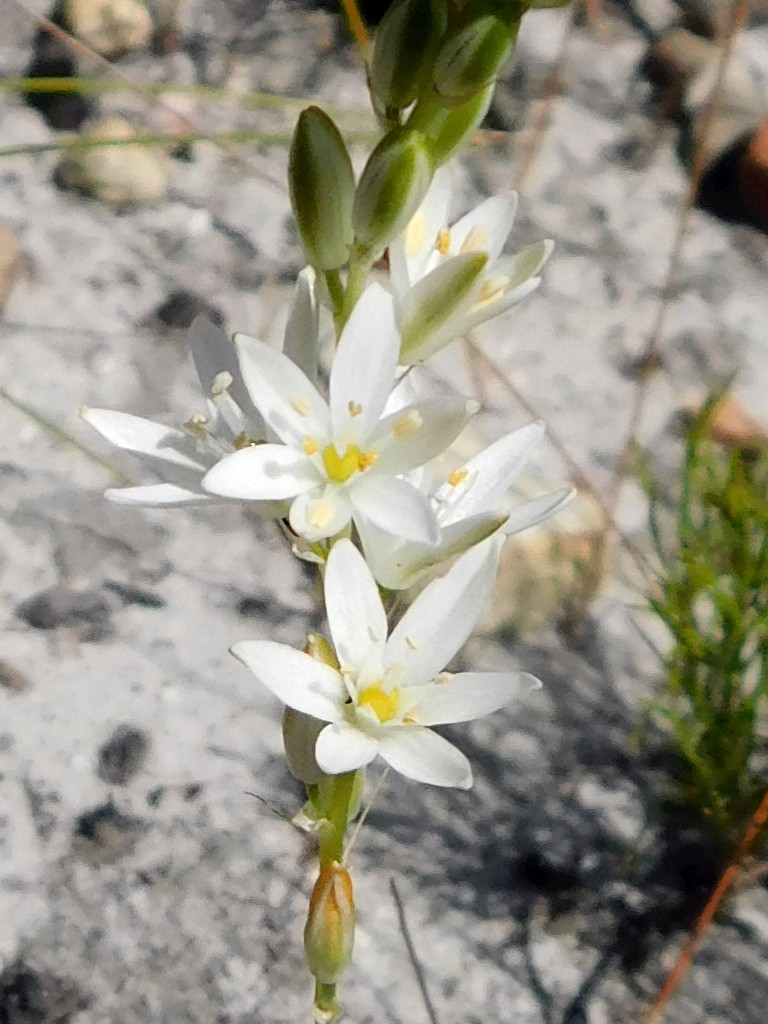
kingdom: Plantae
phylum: Tracheophyta
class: Liliopsida
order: Asparagales
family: Asparagaceae
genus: Ornithogalum
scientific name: Ornithogalum hispidum
